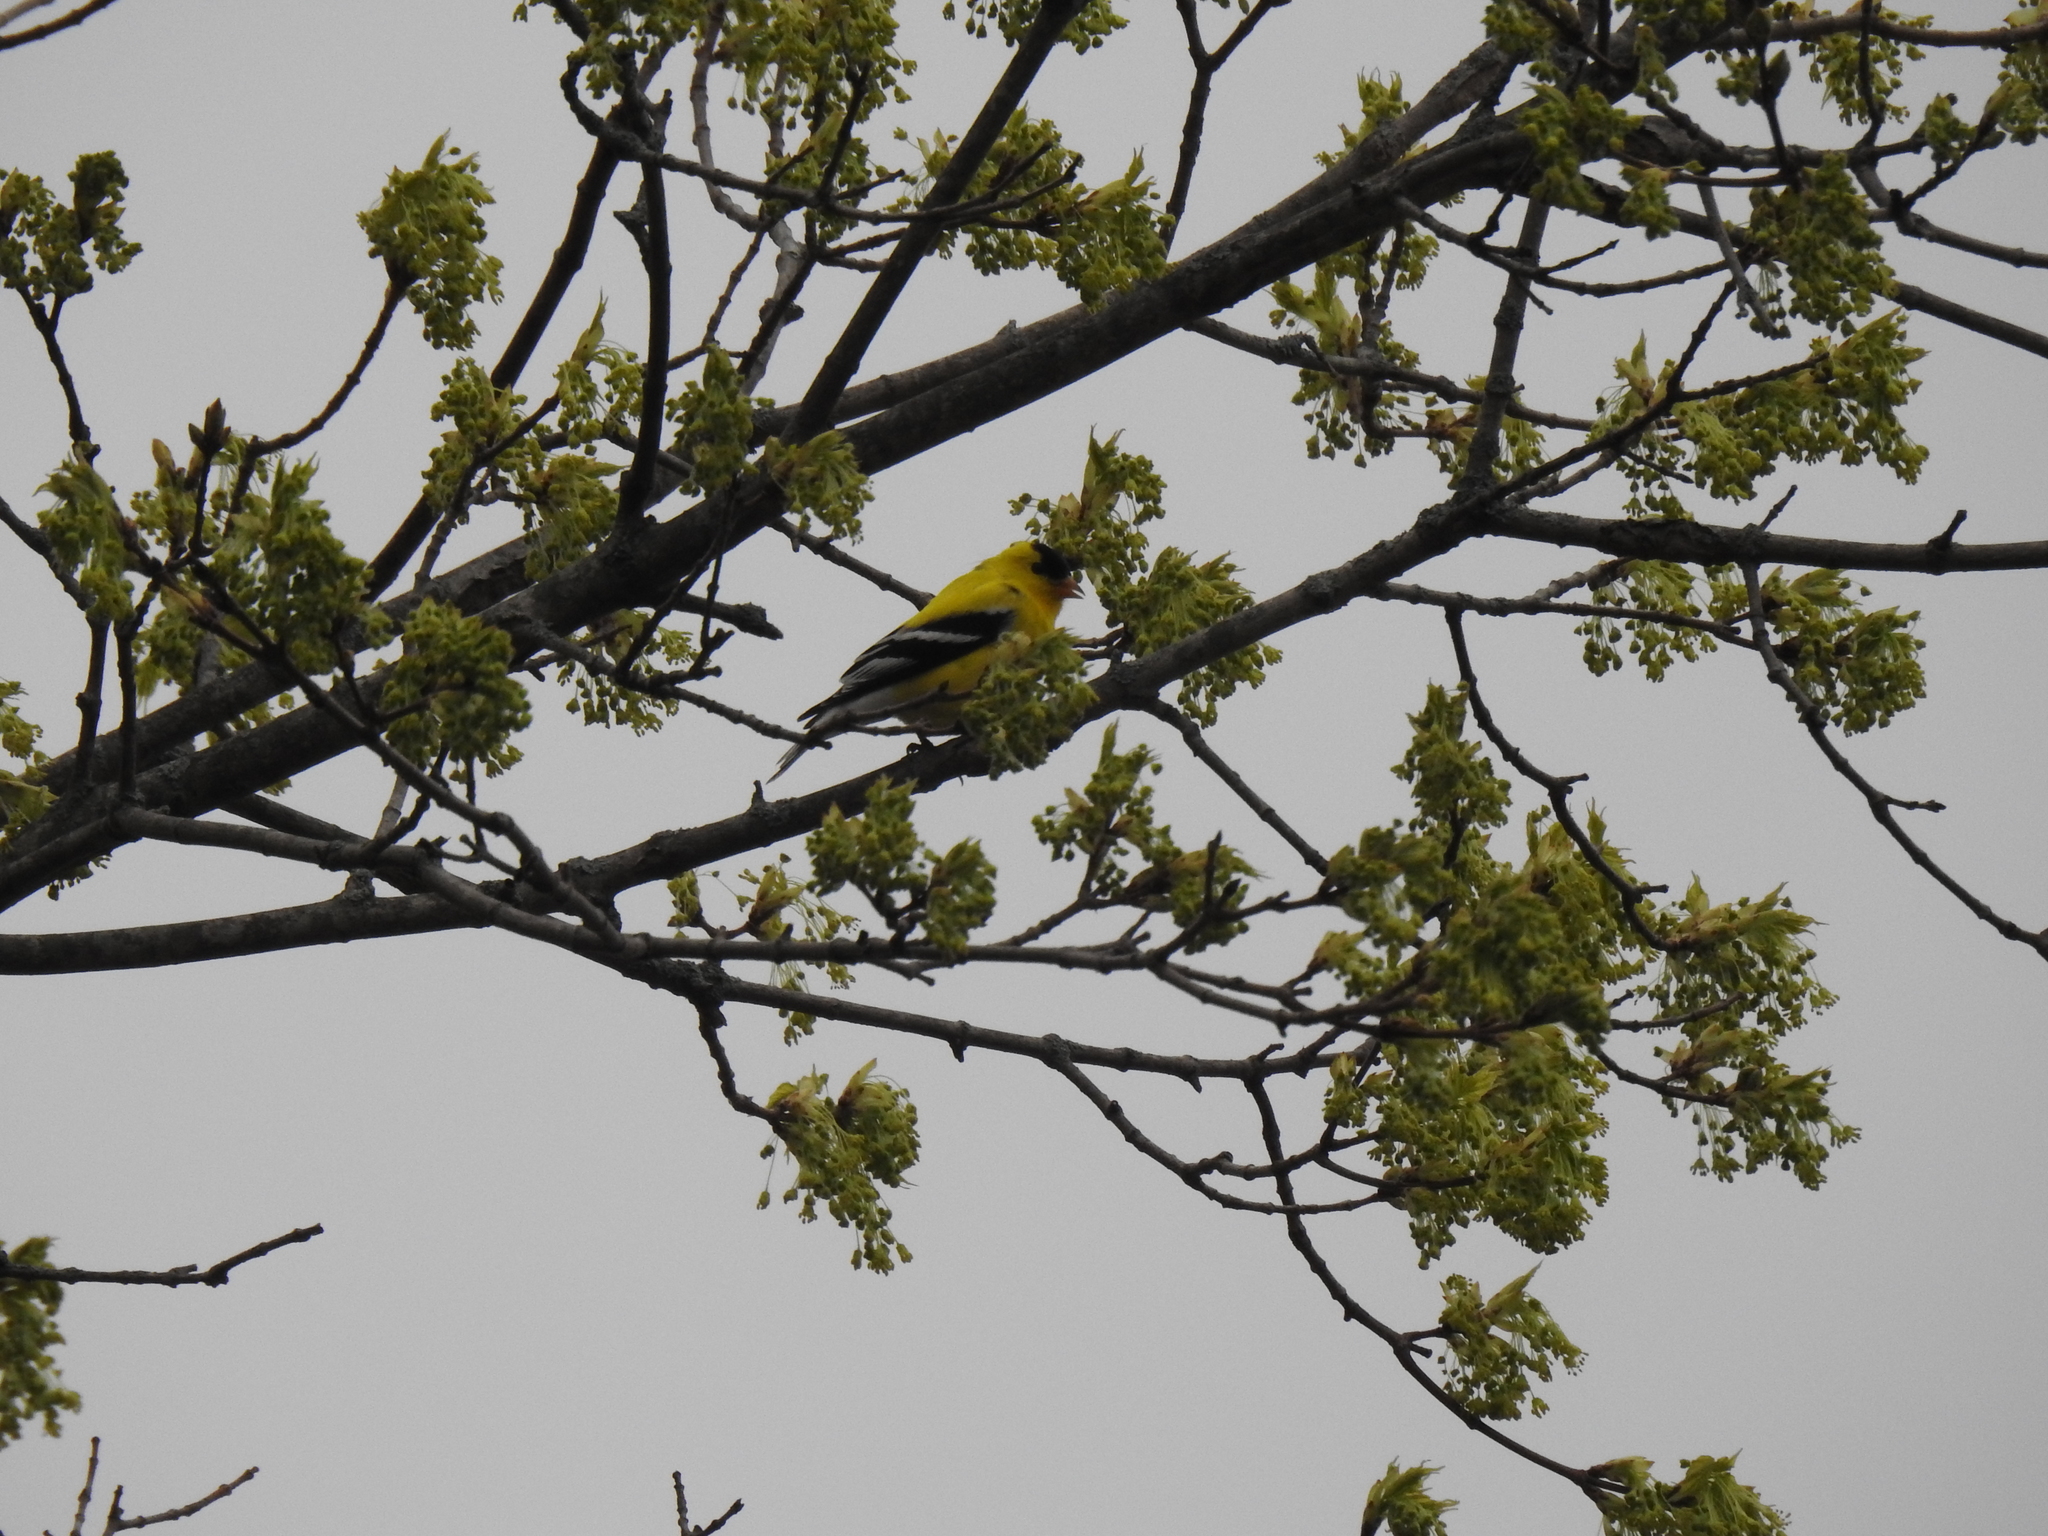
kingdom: Animalia
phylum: Chordata
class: Aves
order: Passeriformes
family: Fringillidae
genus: Spinus
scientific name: Spinus tristis
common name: American goldfinch
